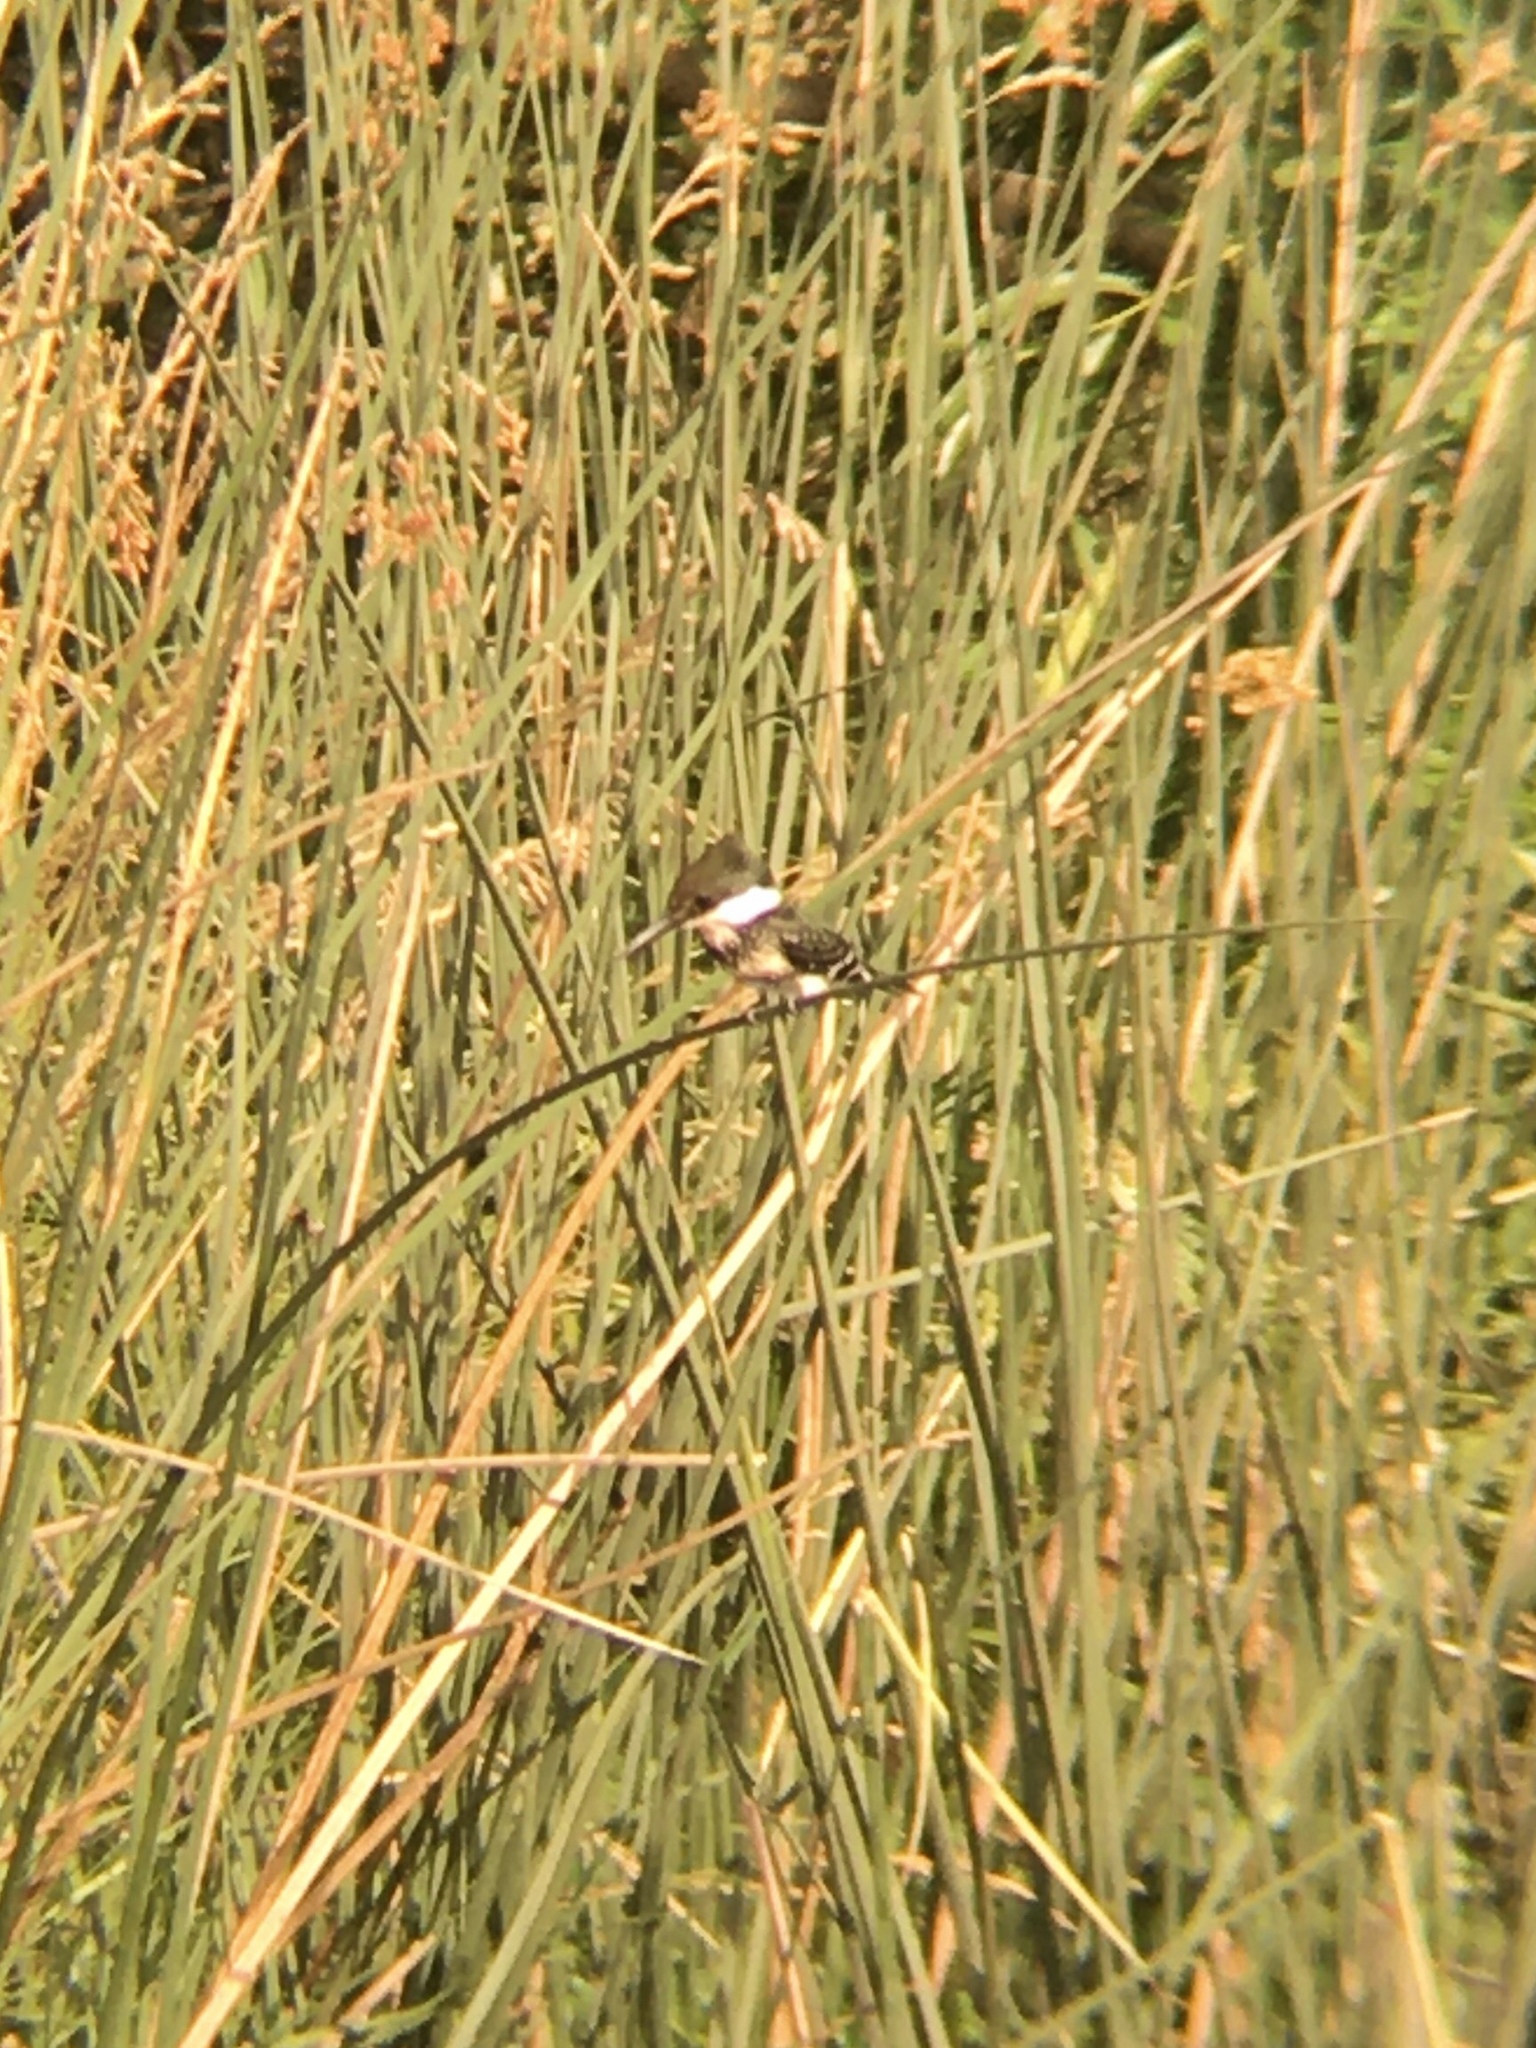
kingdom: Animalia
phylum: Chordata
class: Aves
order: Coraciiformes
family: Alcedinidae
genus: Chloroceryle
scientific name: Chloroceryle americana
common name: Green kingfisher
